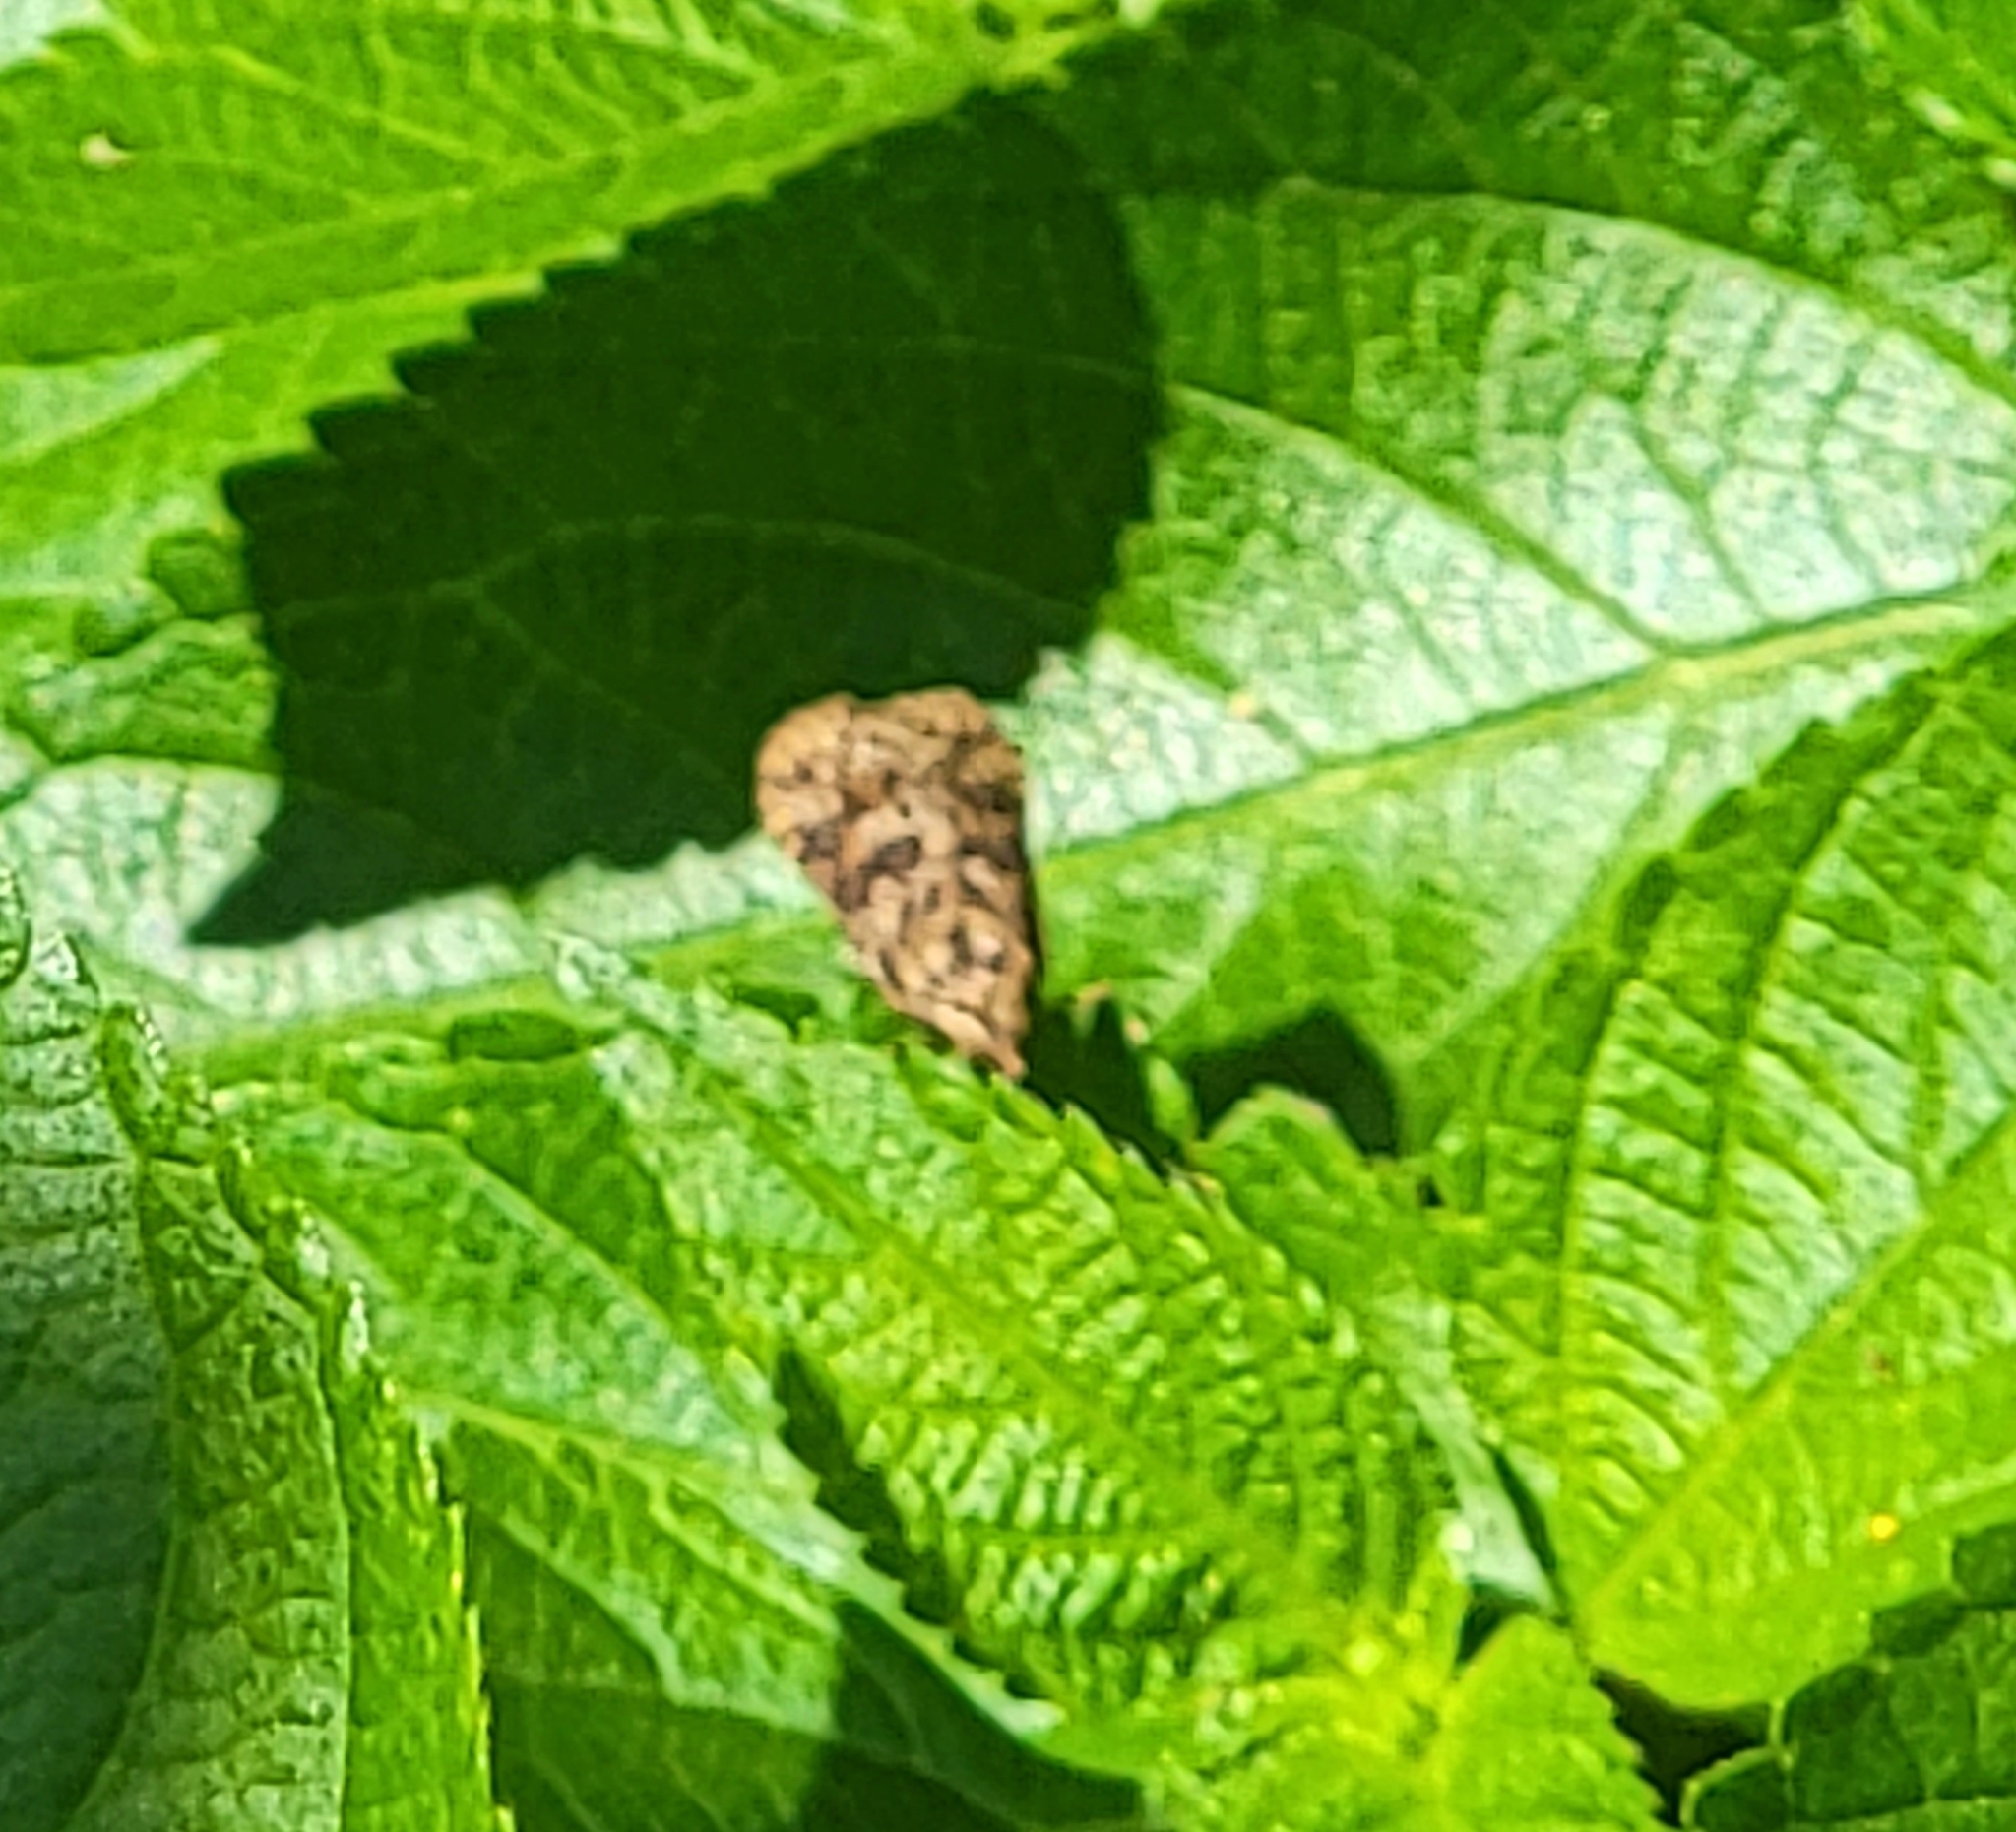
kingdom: Animalia
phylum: Arthropoda
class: Insecta
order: Lepidoptera
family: Crambidae
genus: Nomophila
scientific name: Nomophila nearctica
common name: American rush veneer
